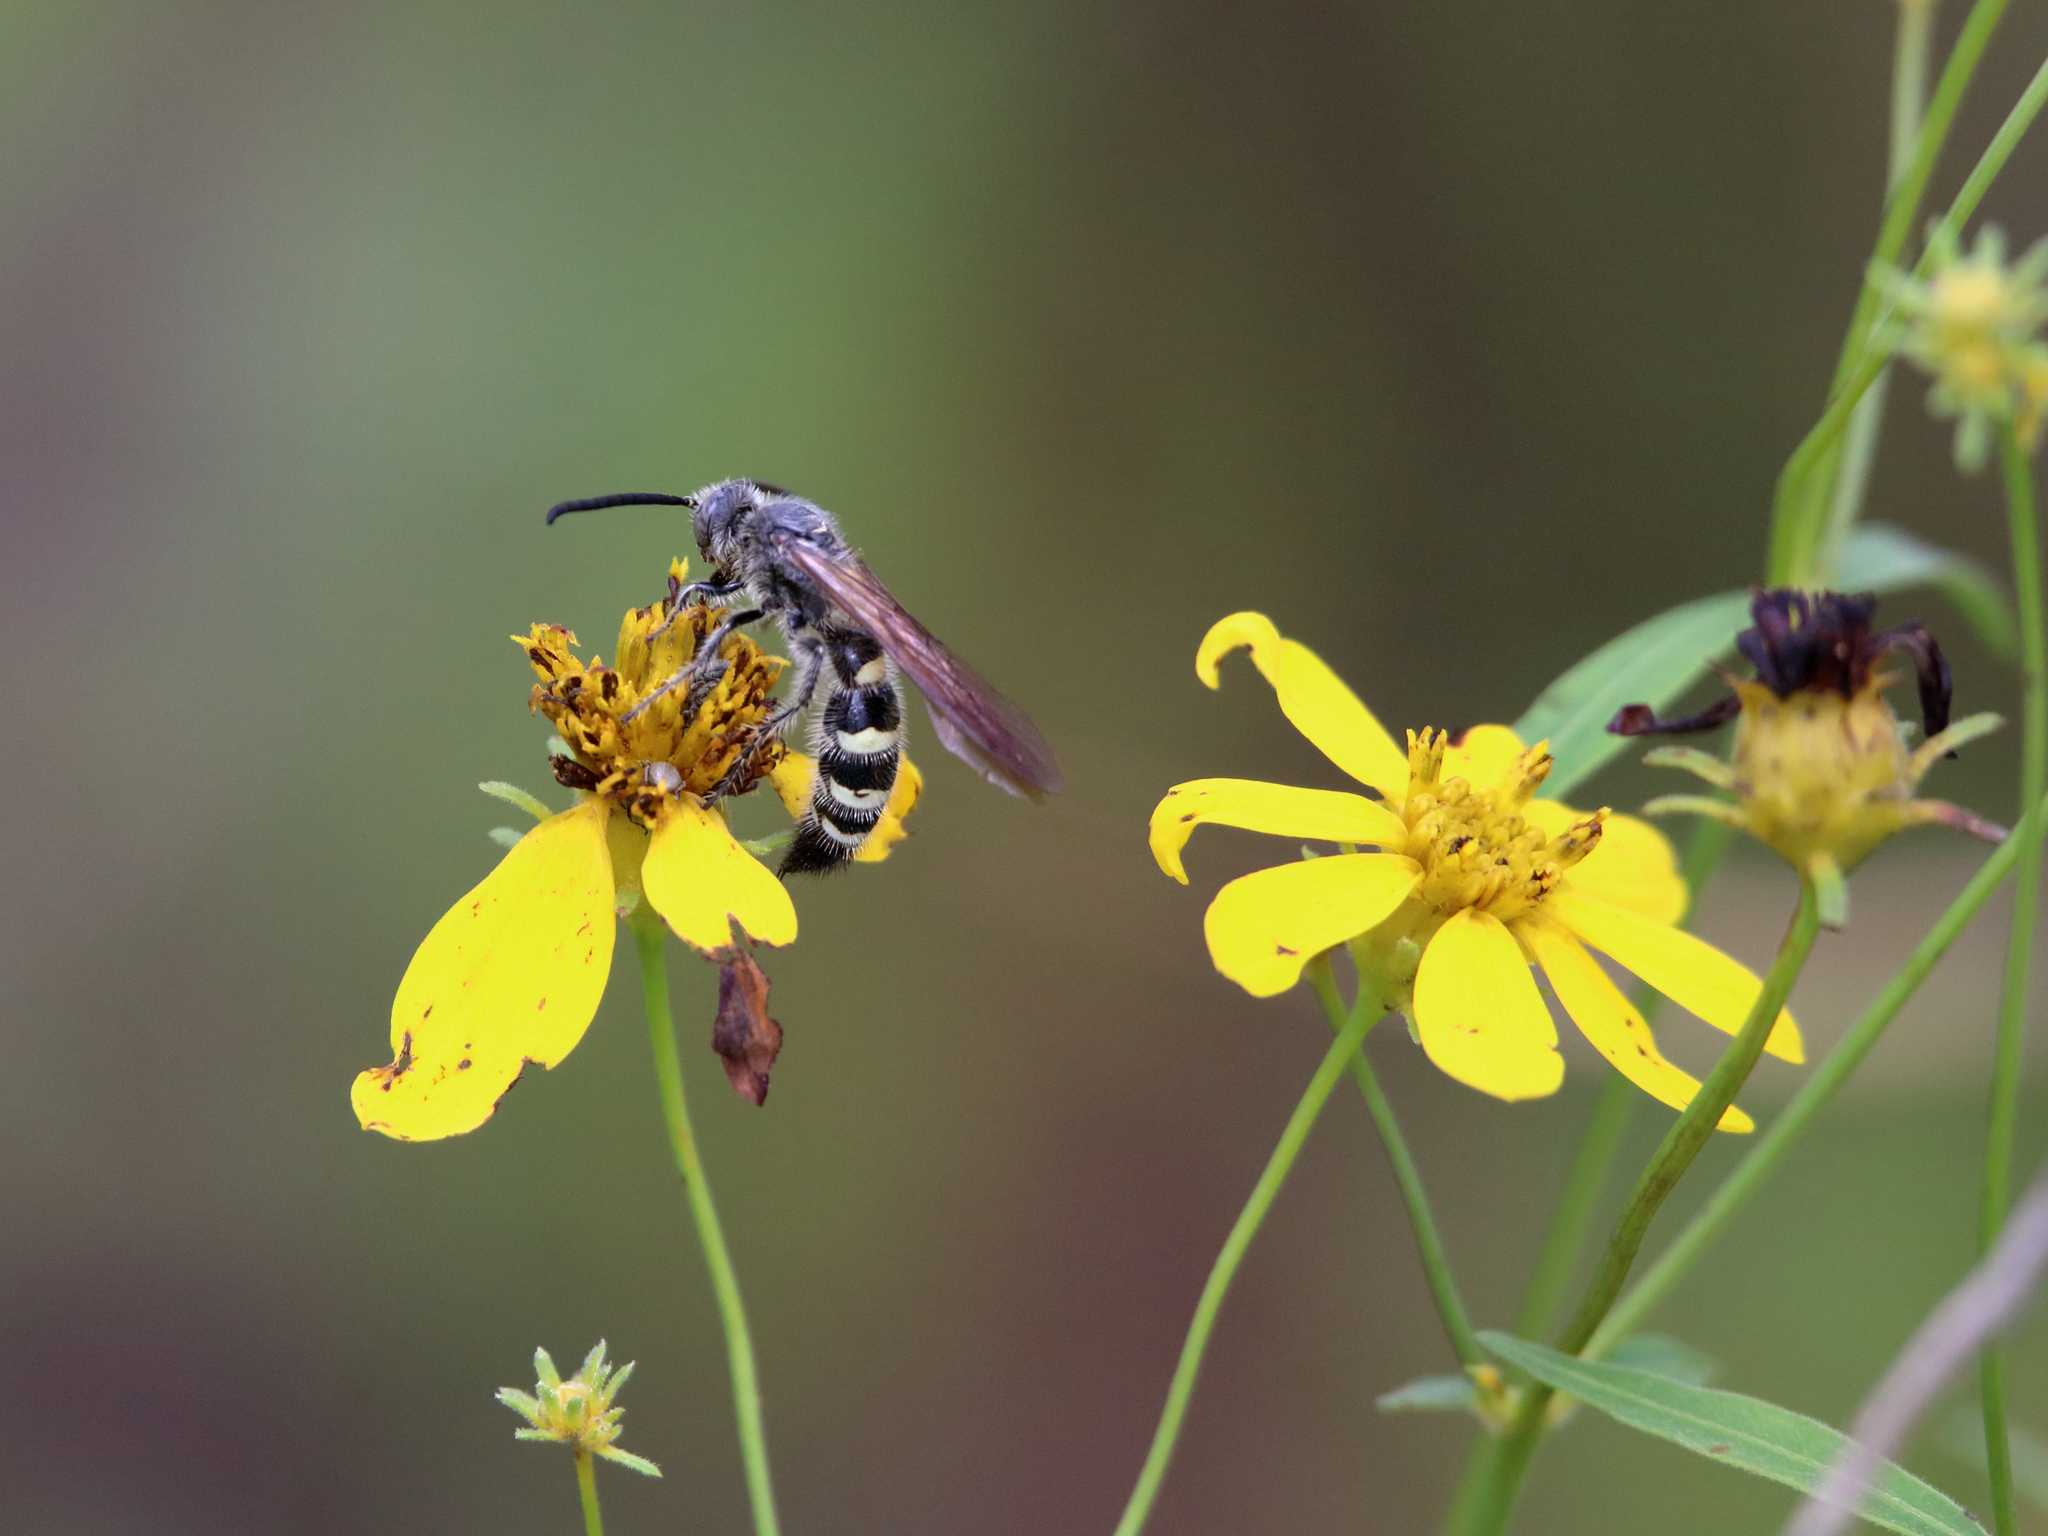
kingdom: Animalia
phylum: Arthropoda
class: Insecta
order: Hymenoptera
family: Scoliidae
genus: Dielis
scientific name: Dielis
